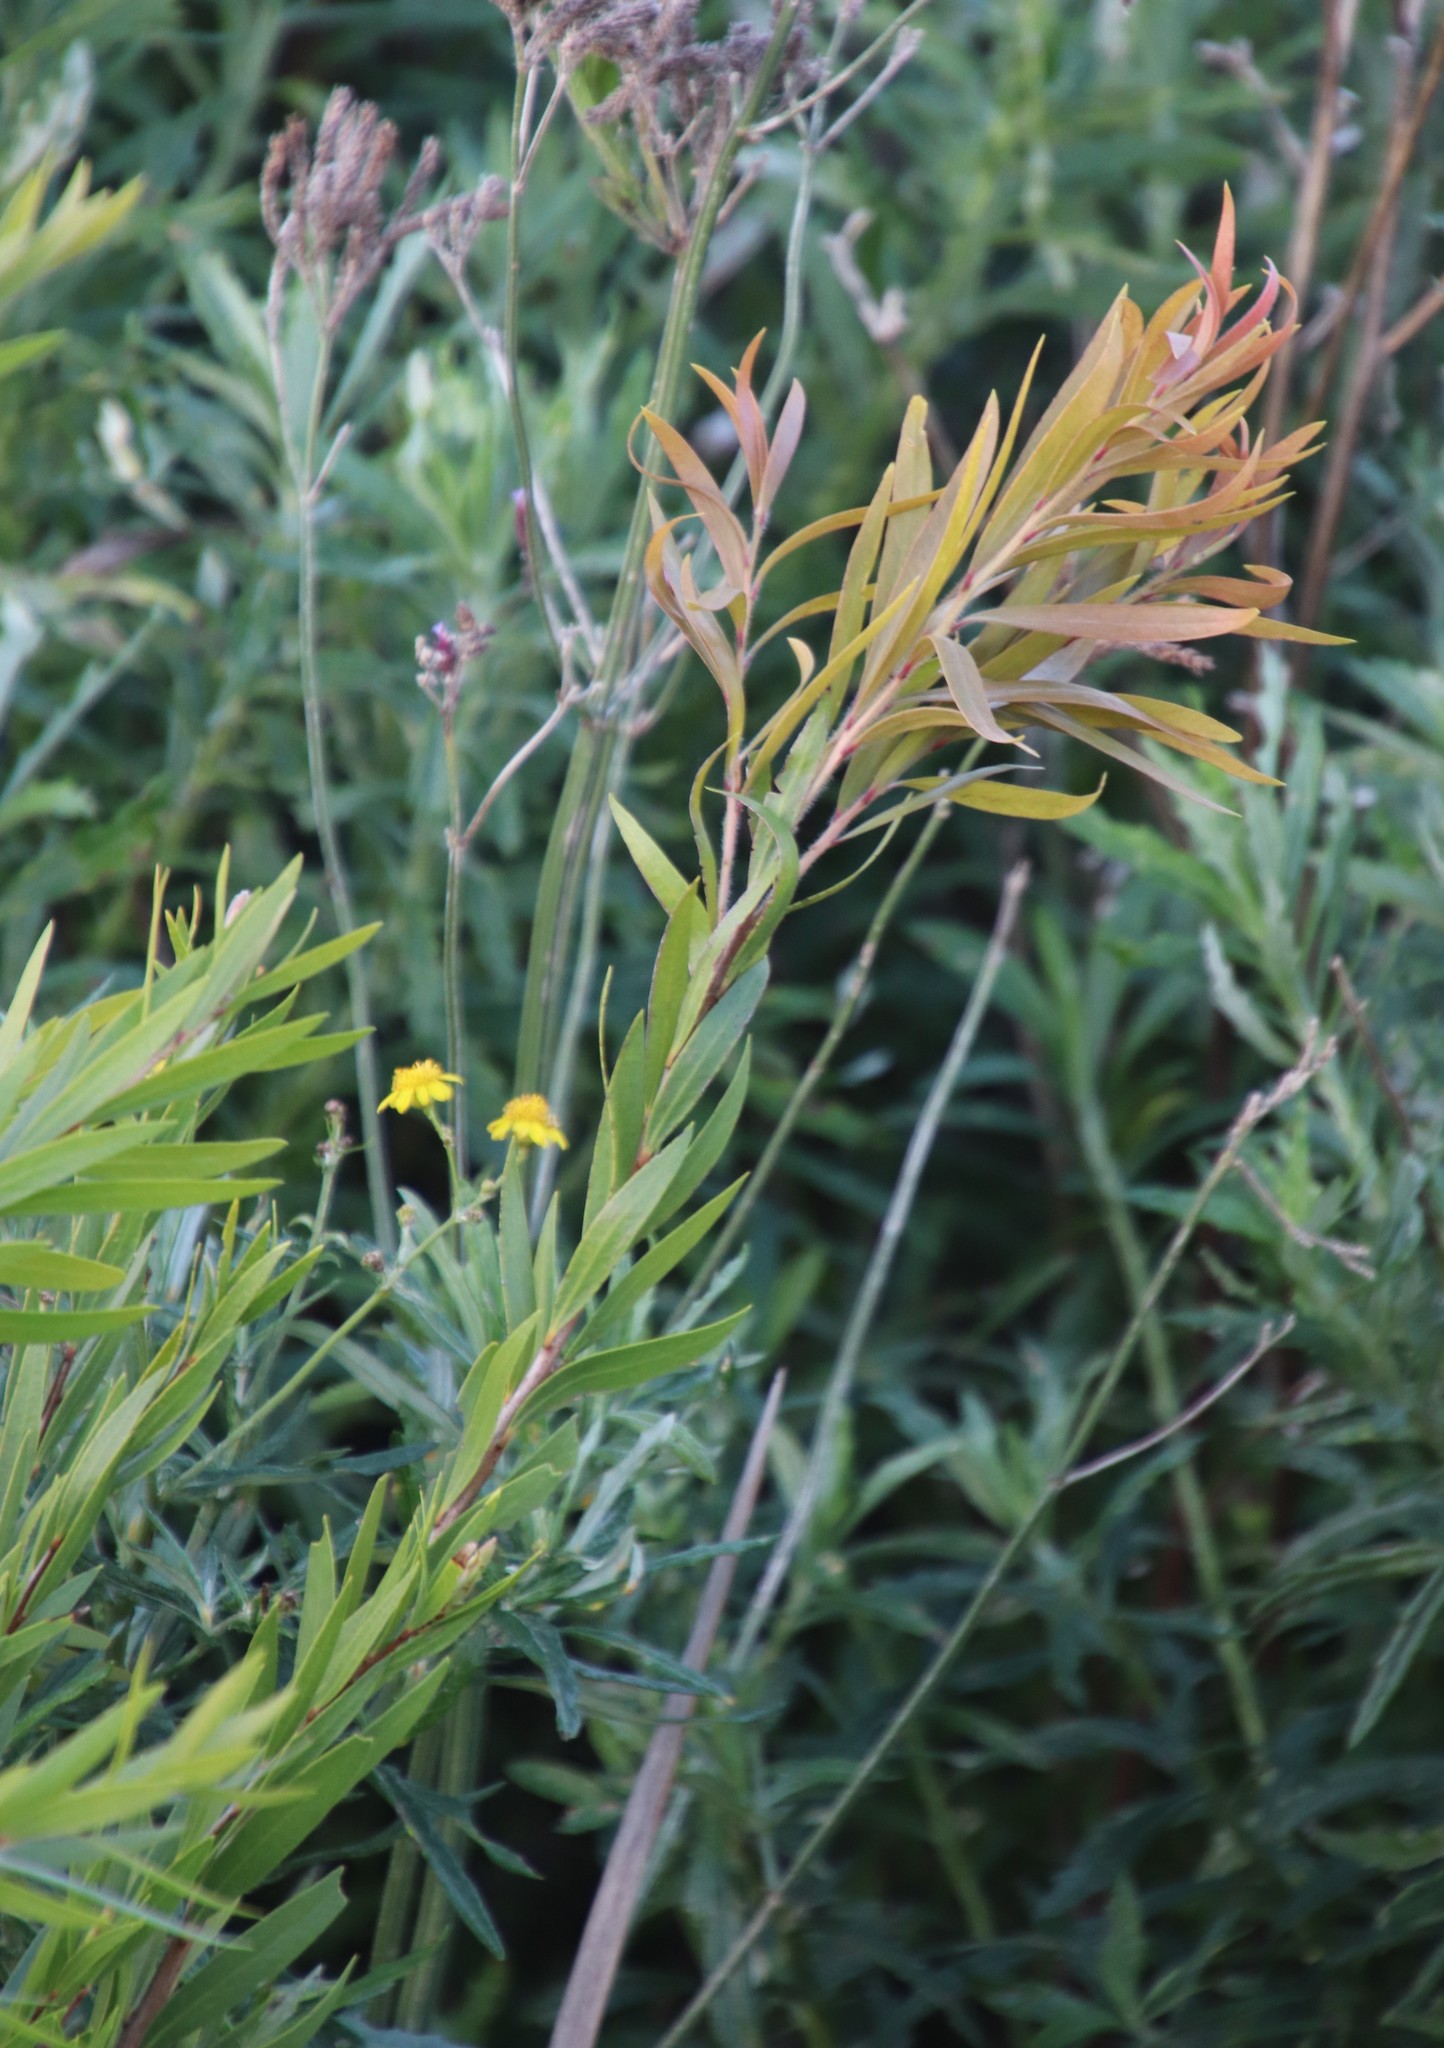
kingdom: Plantae
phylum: Tracheophyta
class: Magnoliopsida
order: Myrtales
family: Myrtaceae
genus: Callistemon
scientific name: Callistemon viminalis
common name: Drooping bottlebrush
